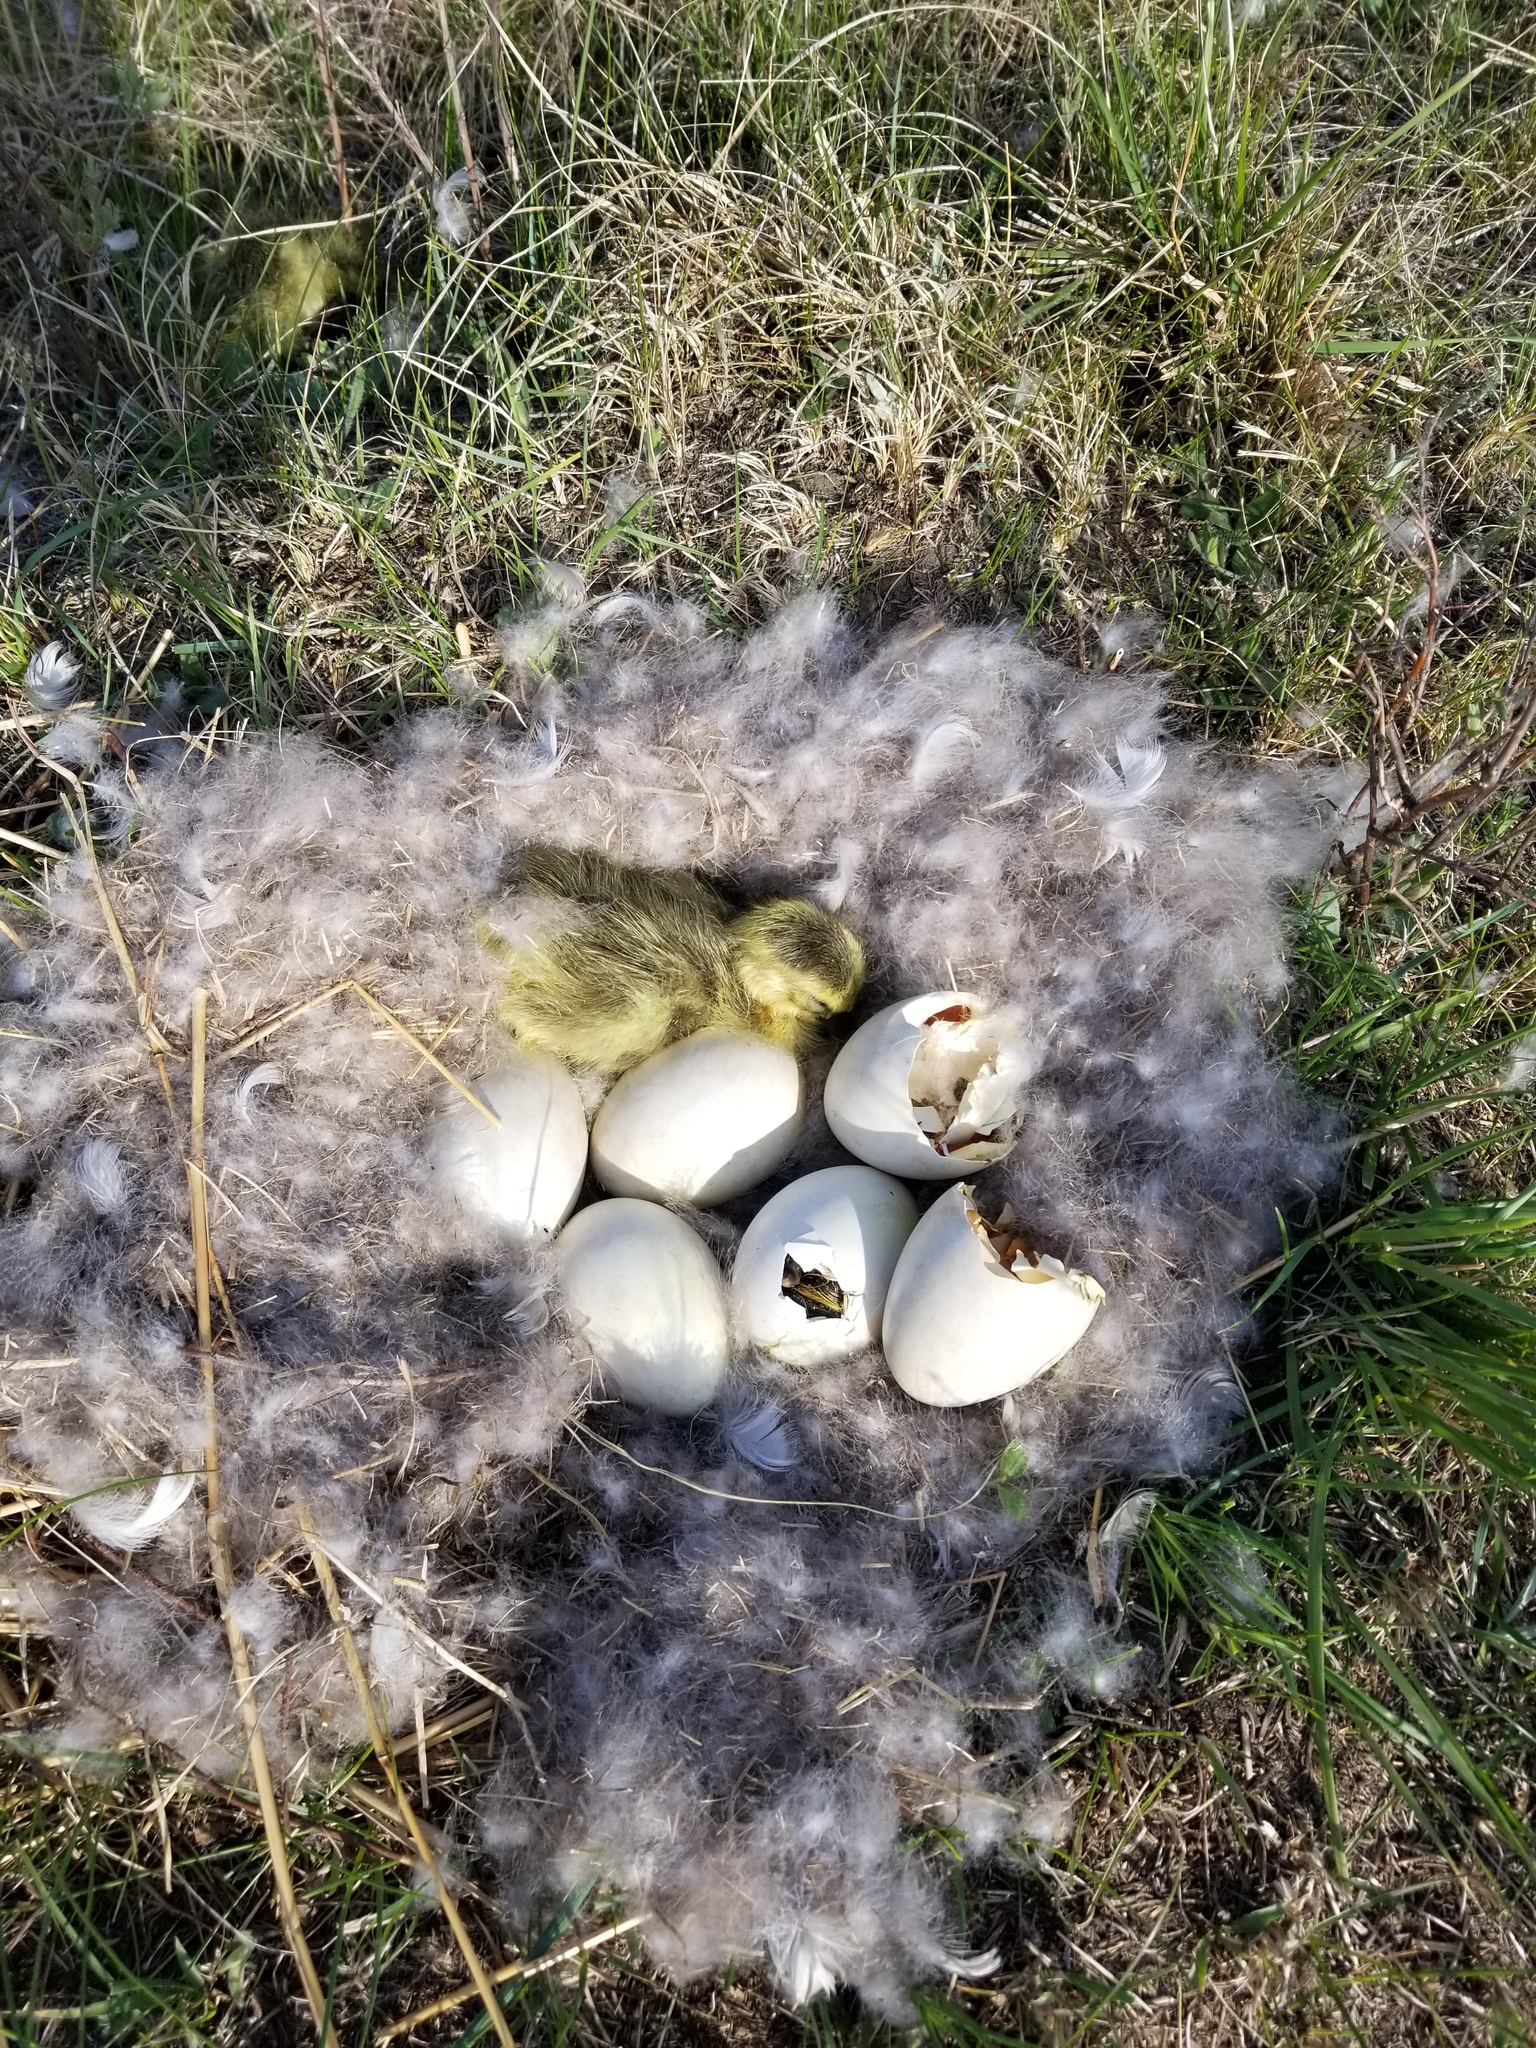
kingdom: Animalia
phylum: Chordata
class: Aves
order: Anseriformes
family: Anatidae
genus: Branta
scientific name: Branta canadensis
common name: Canada goose
